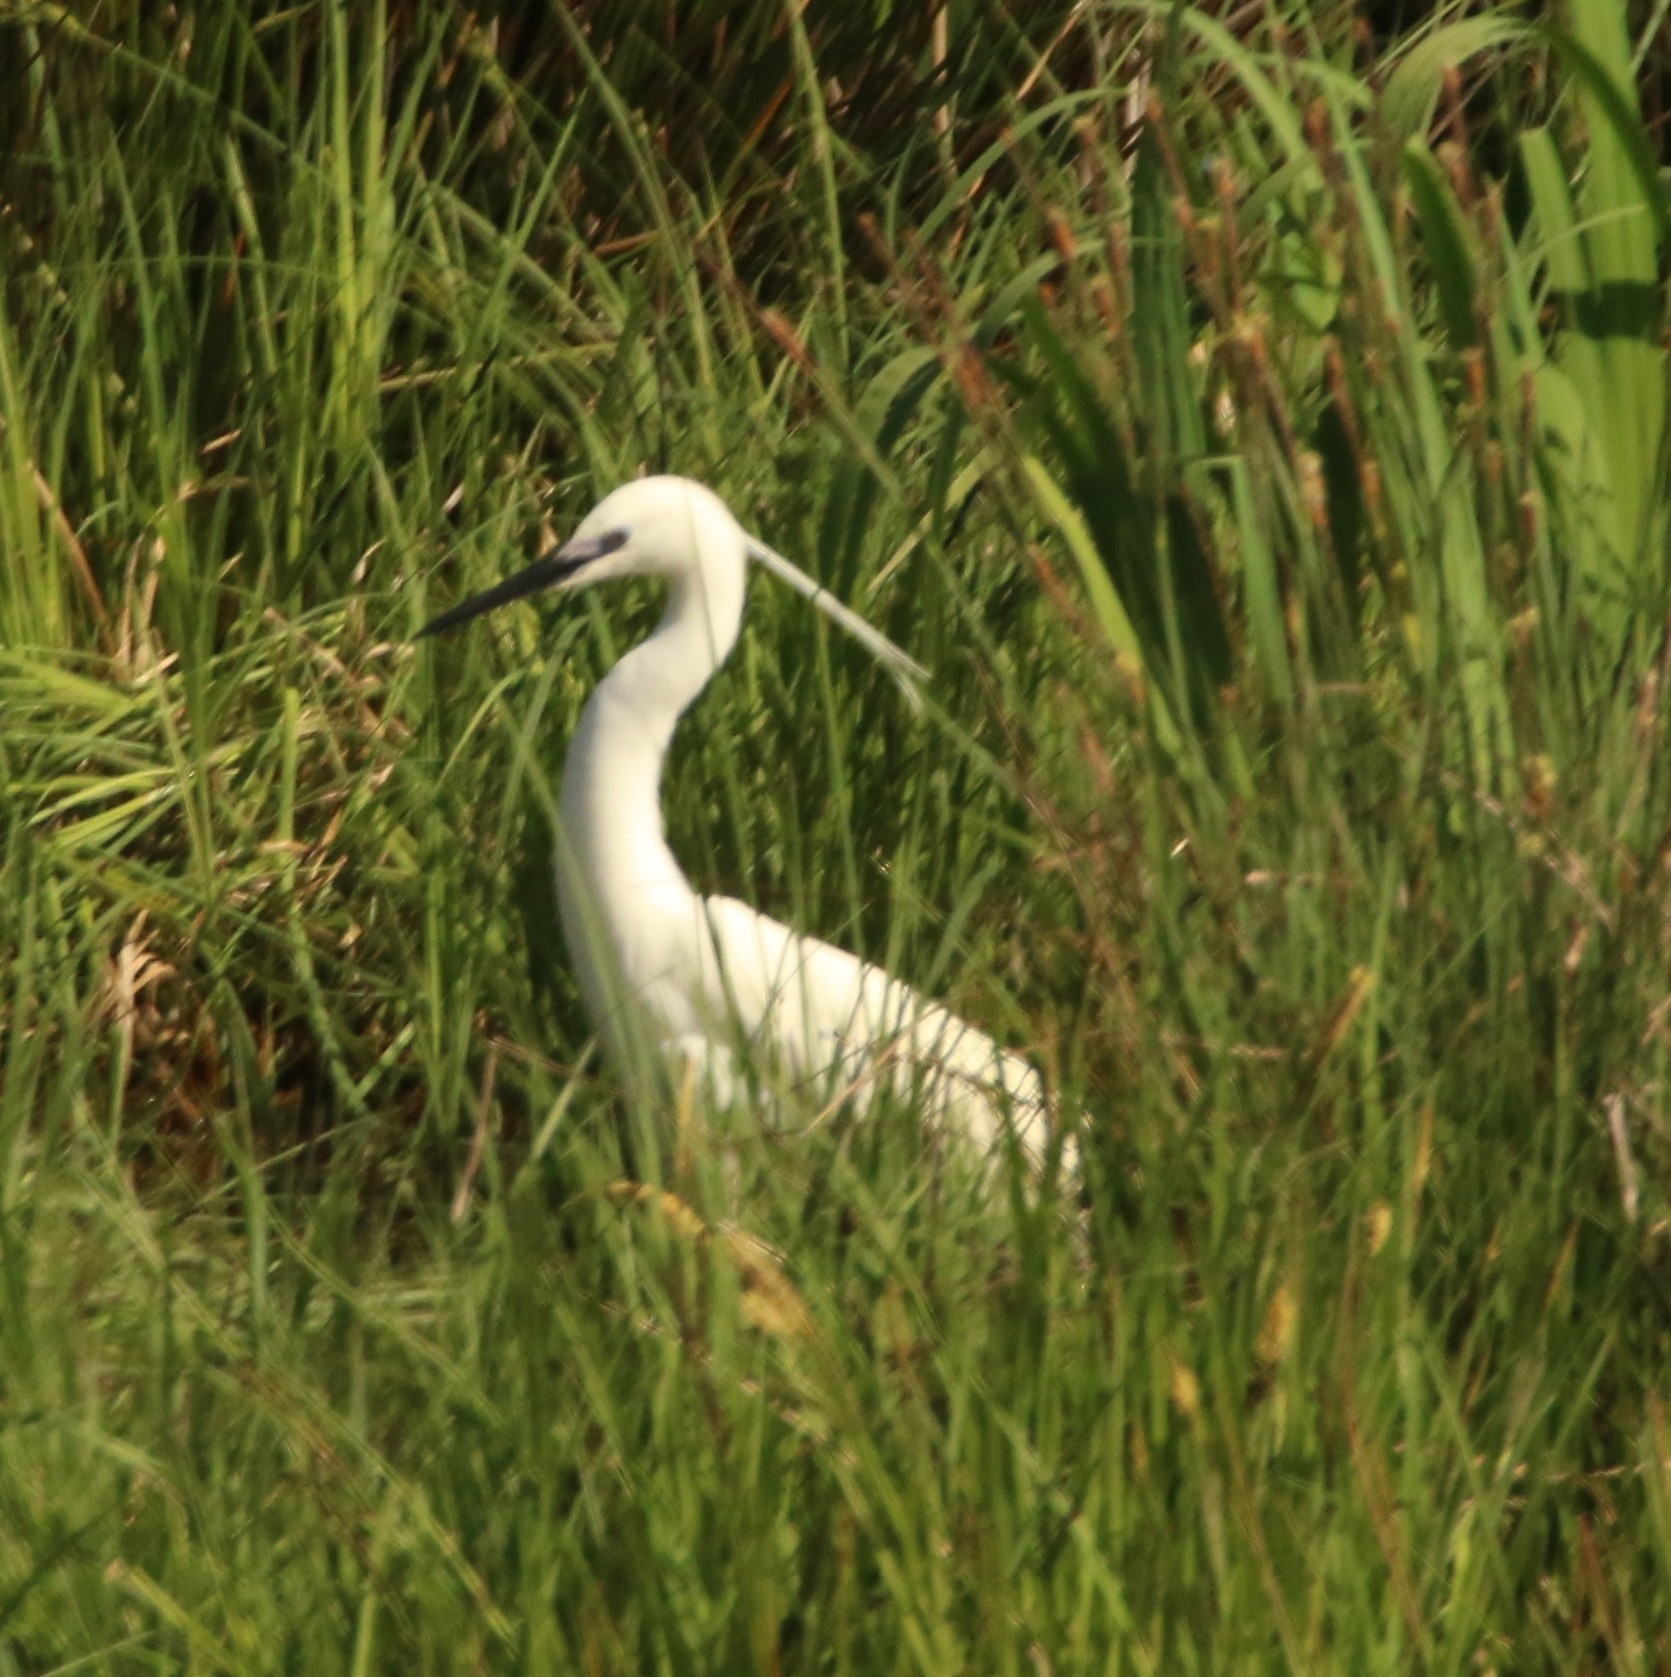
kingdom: Animalia
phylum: Chordata
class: Aves
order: Pelecaniformes
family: Ardeidae
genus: Egretta
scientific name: Egretta garzetta
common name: Little egret
